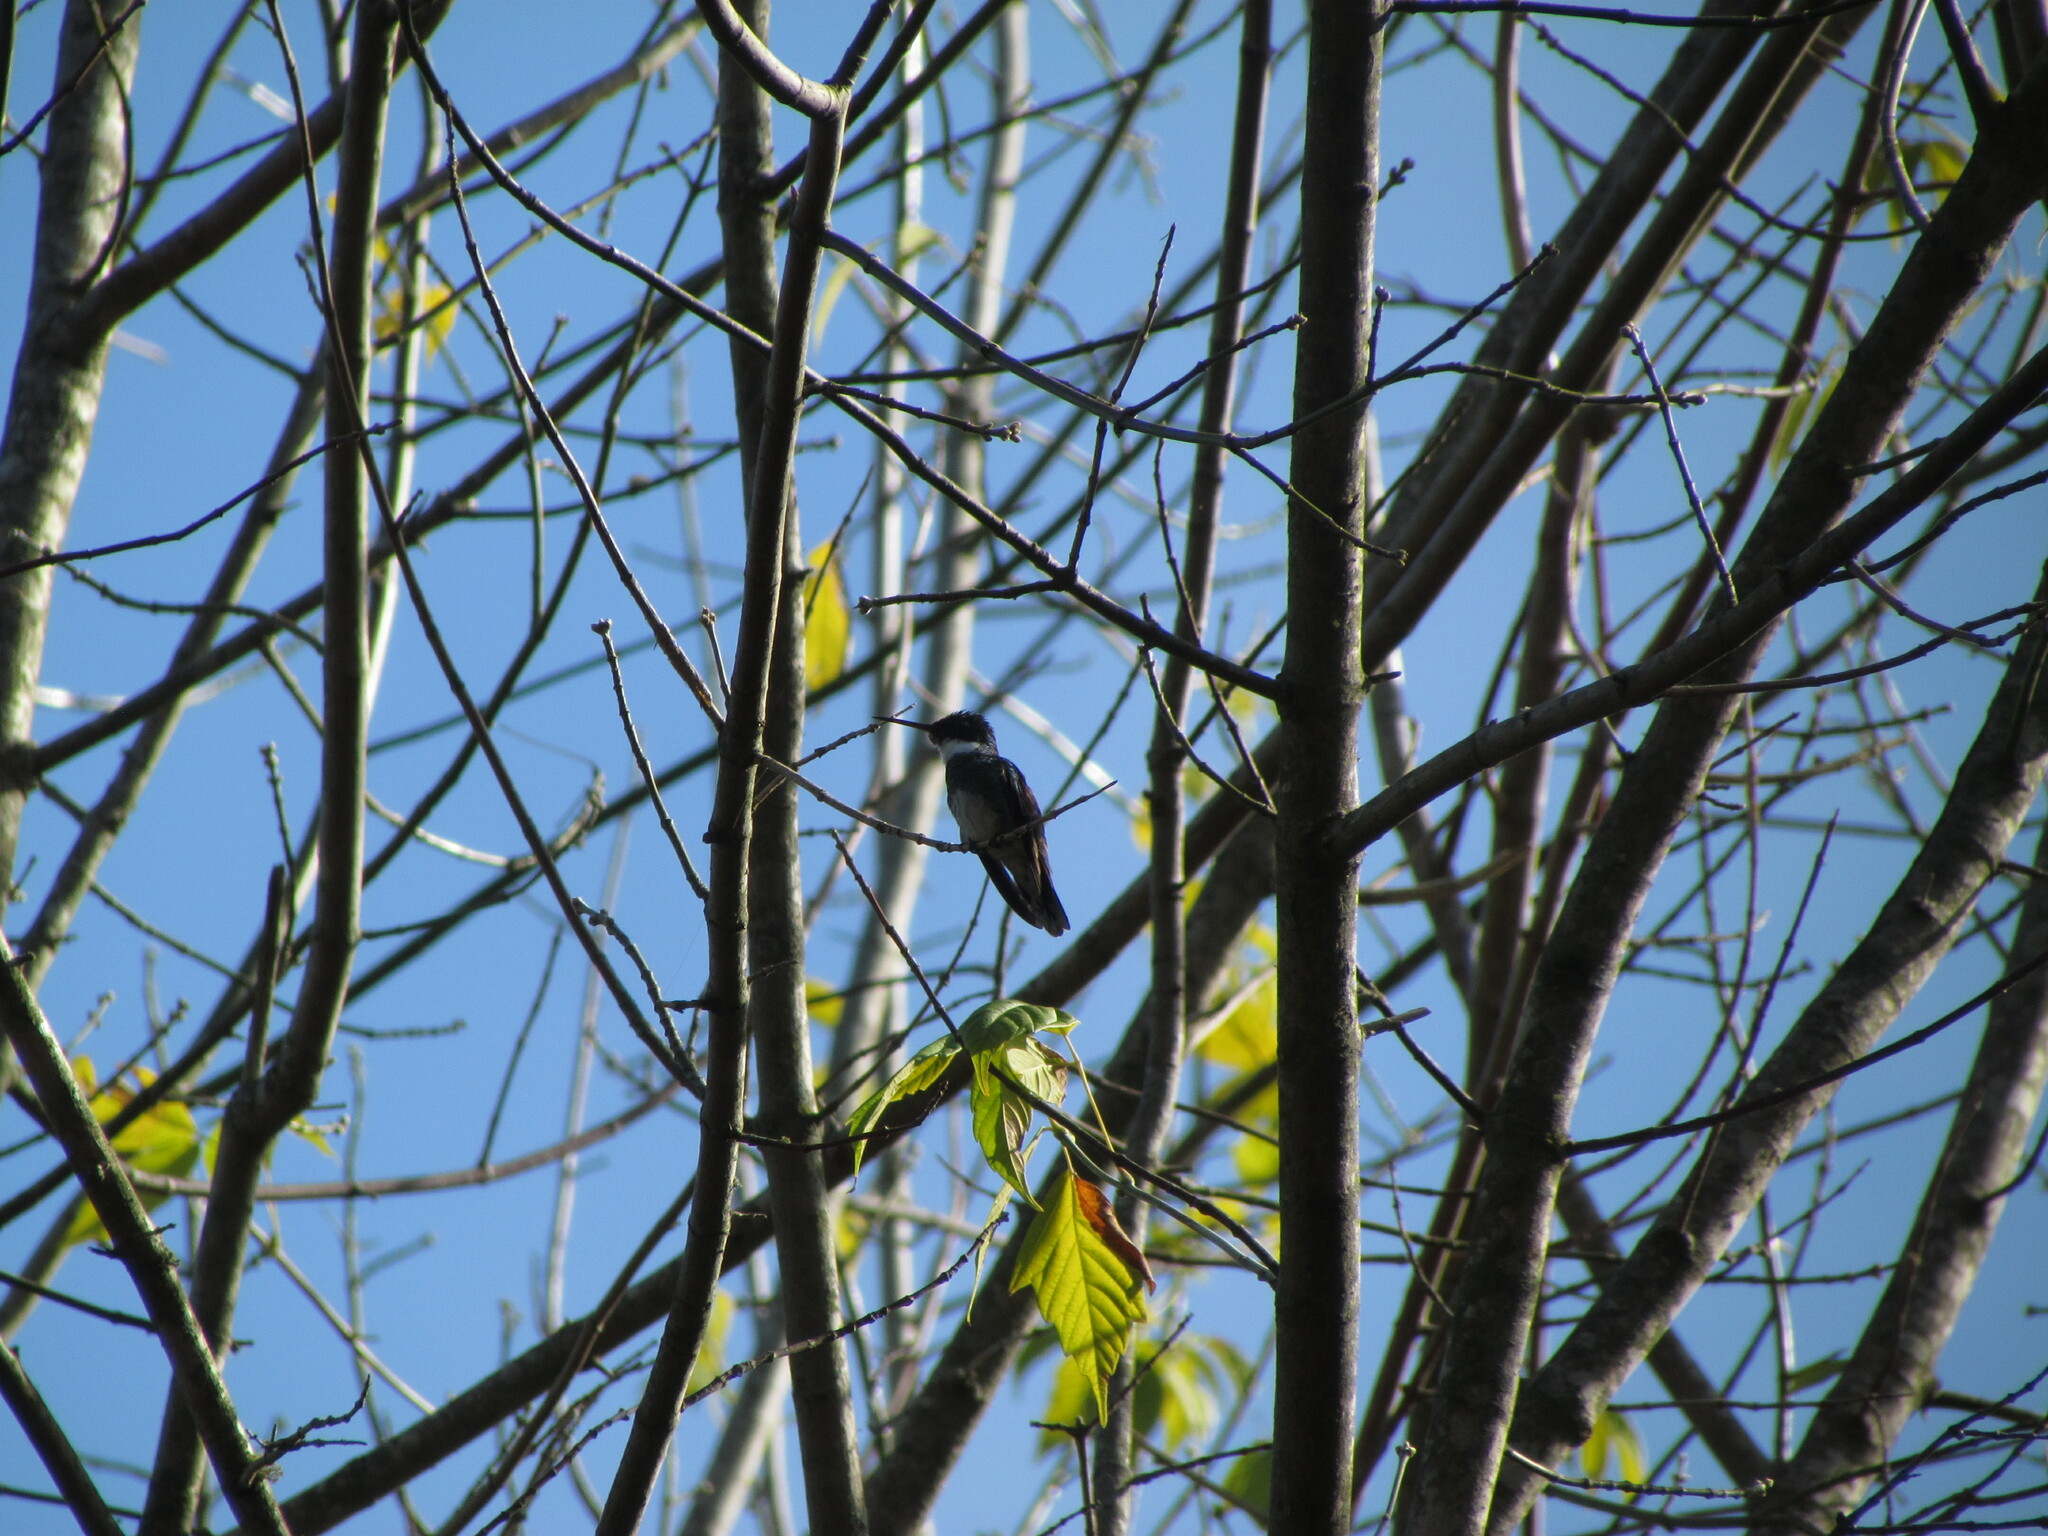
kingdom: Animalia
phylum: Chordata
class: Aves
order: Apodiformes
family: Trochilidae
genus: Leucochloris
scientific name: Leucochloris albicollis
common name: White-throated hummingbird
